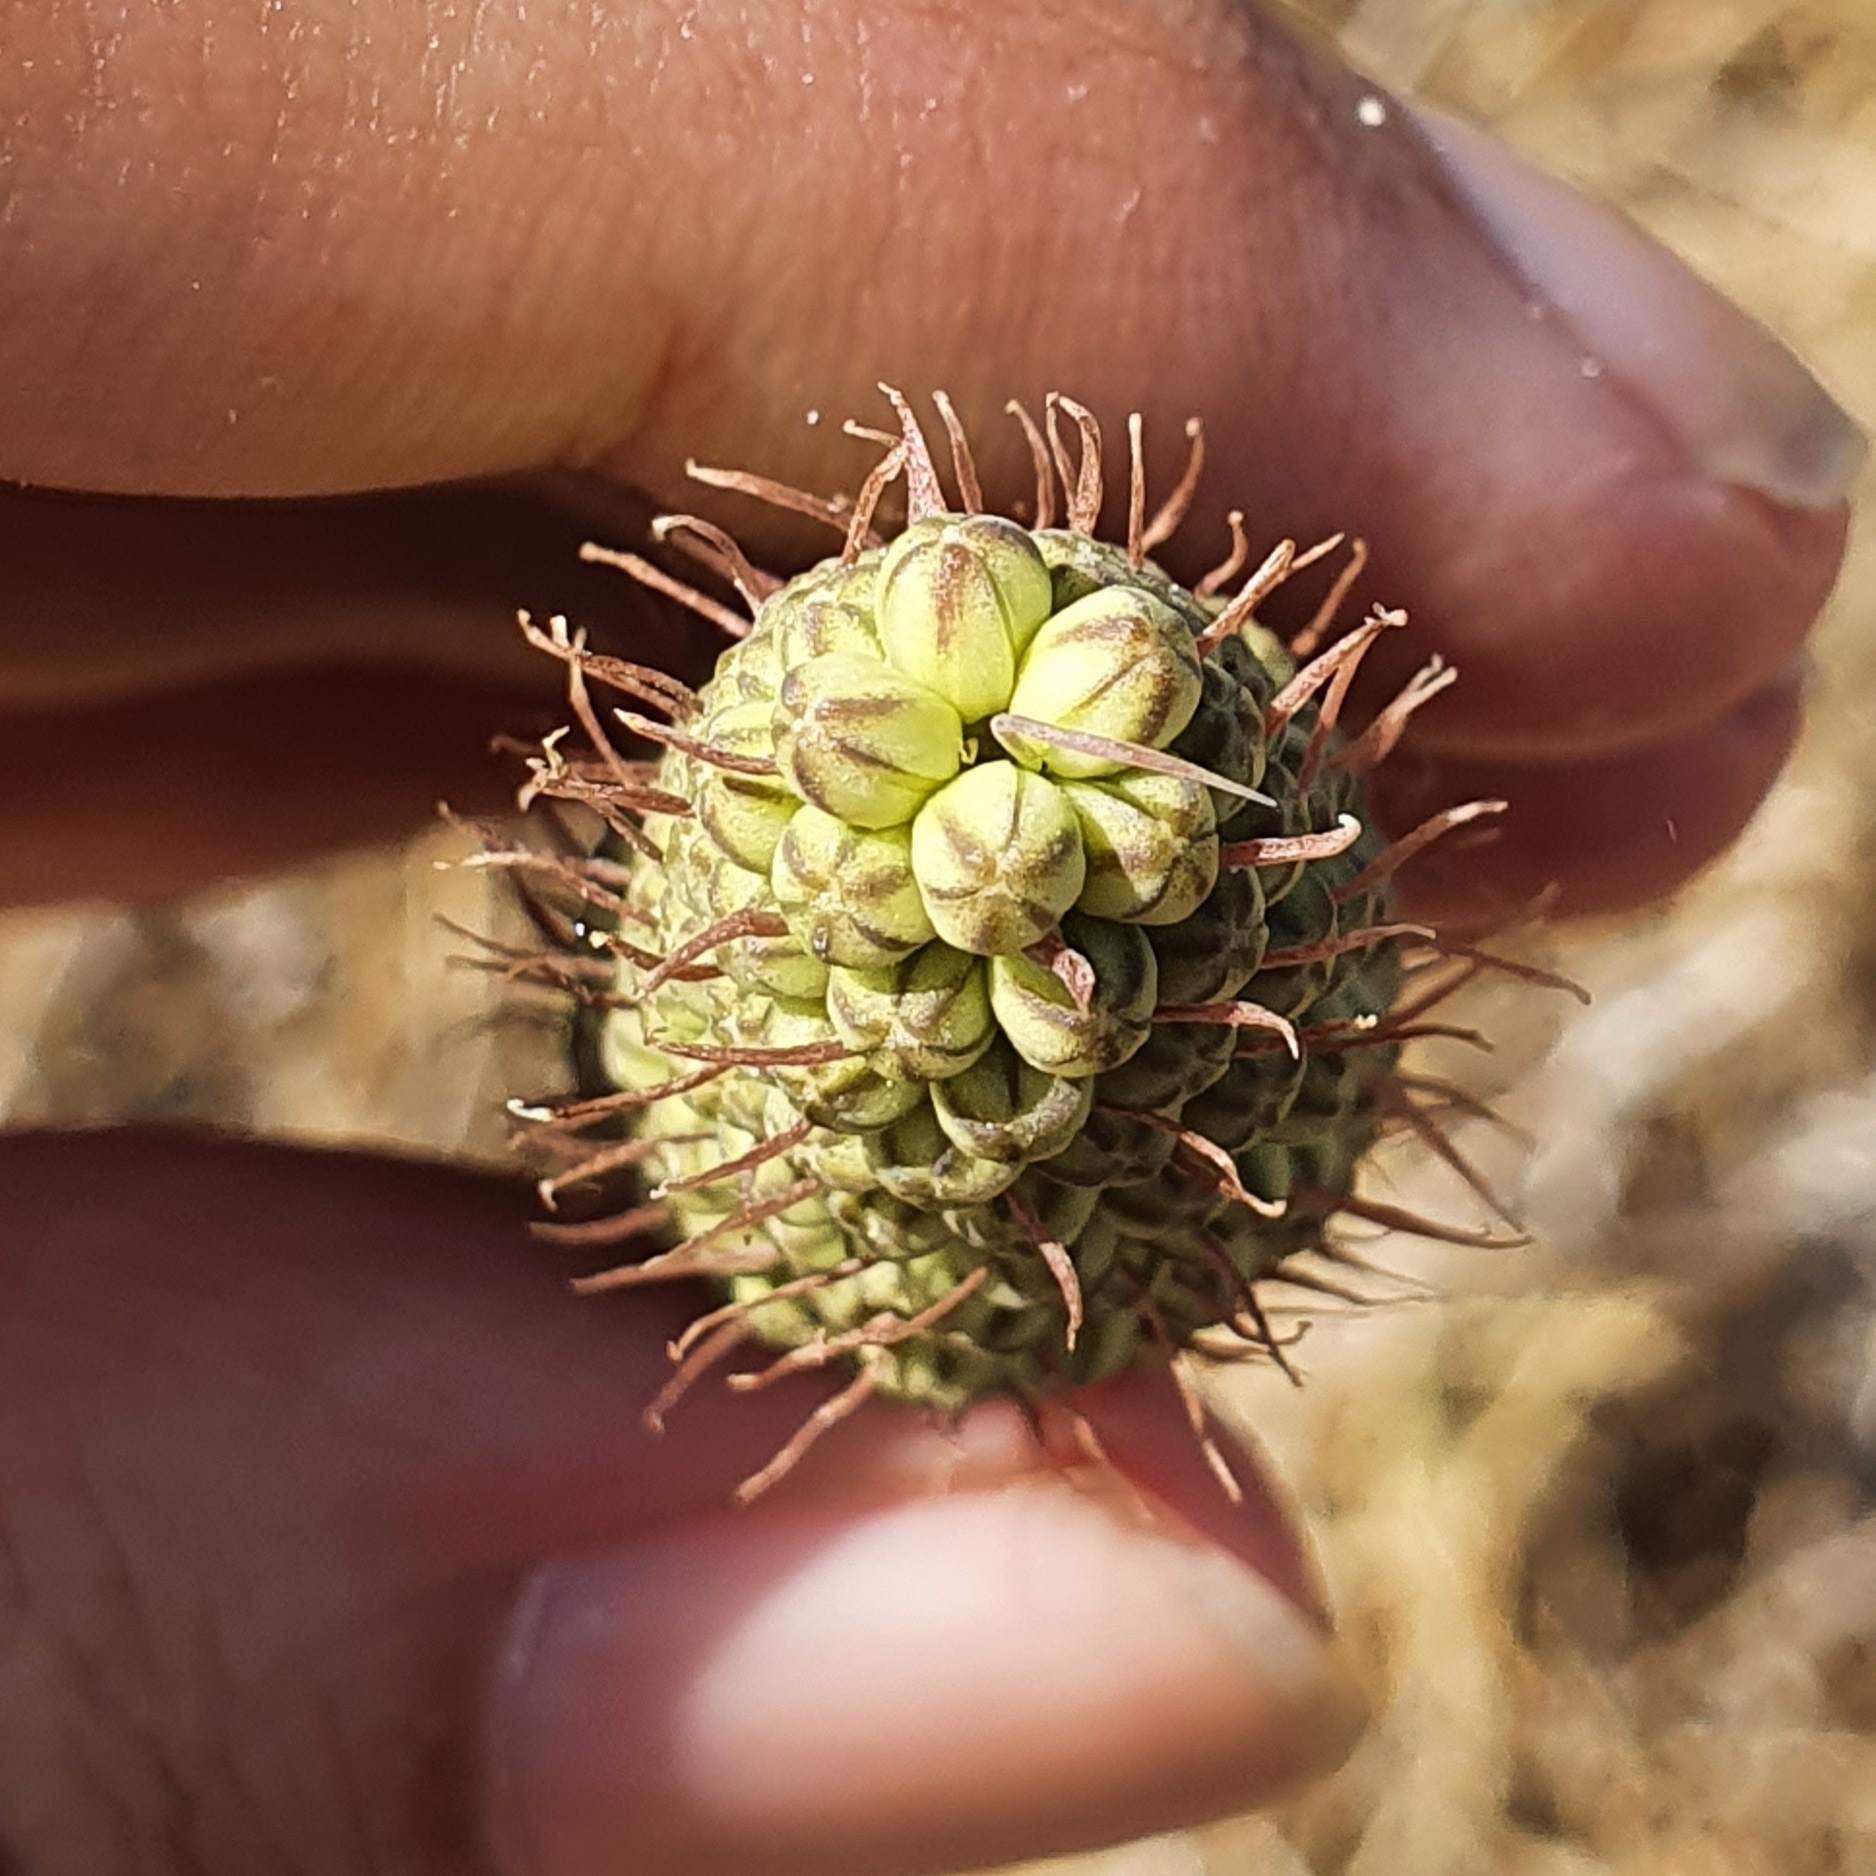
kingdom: Plantae
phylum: Tracheophyta
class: Liliopsida
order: Asparagales
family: Asparagaceae
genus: Drimia
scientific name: Drimia anthericoides
